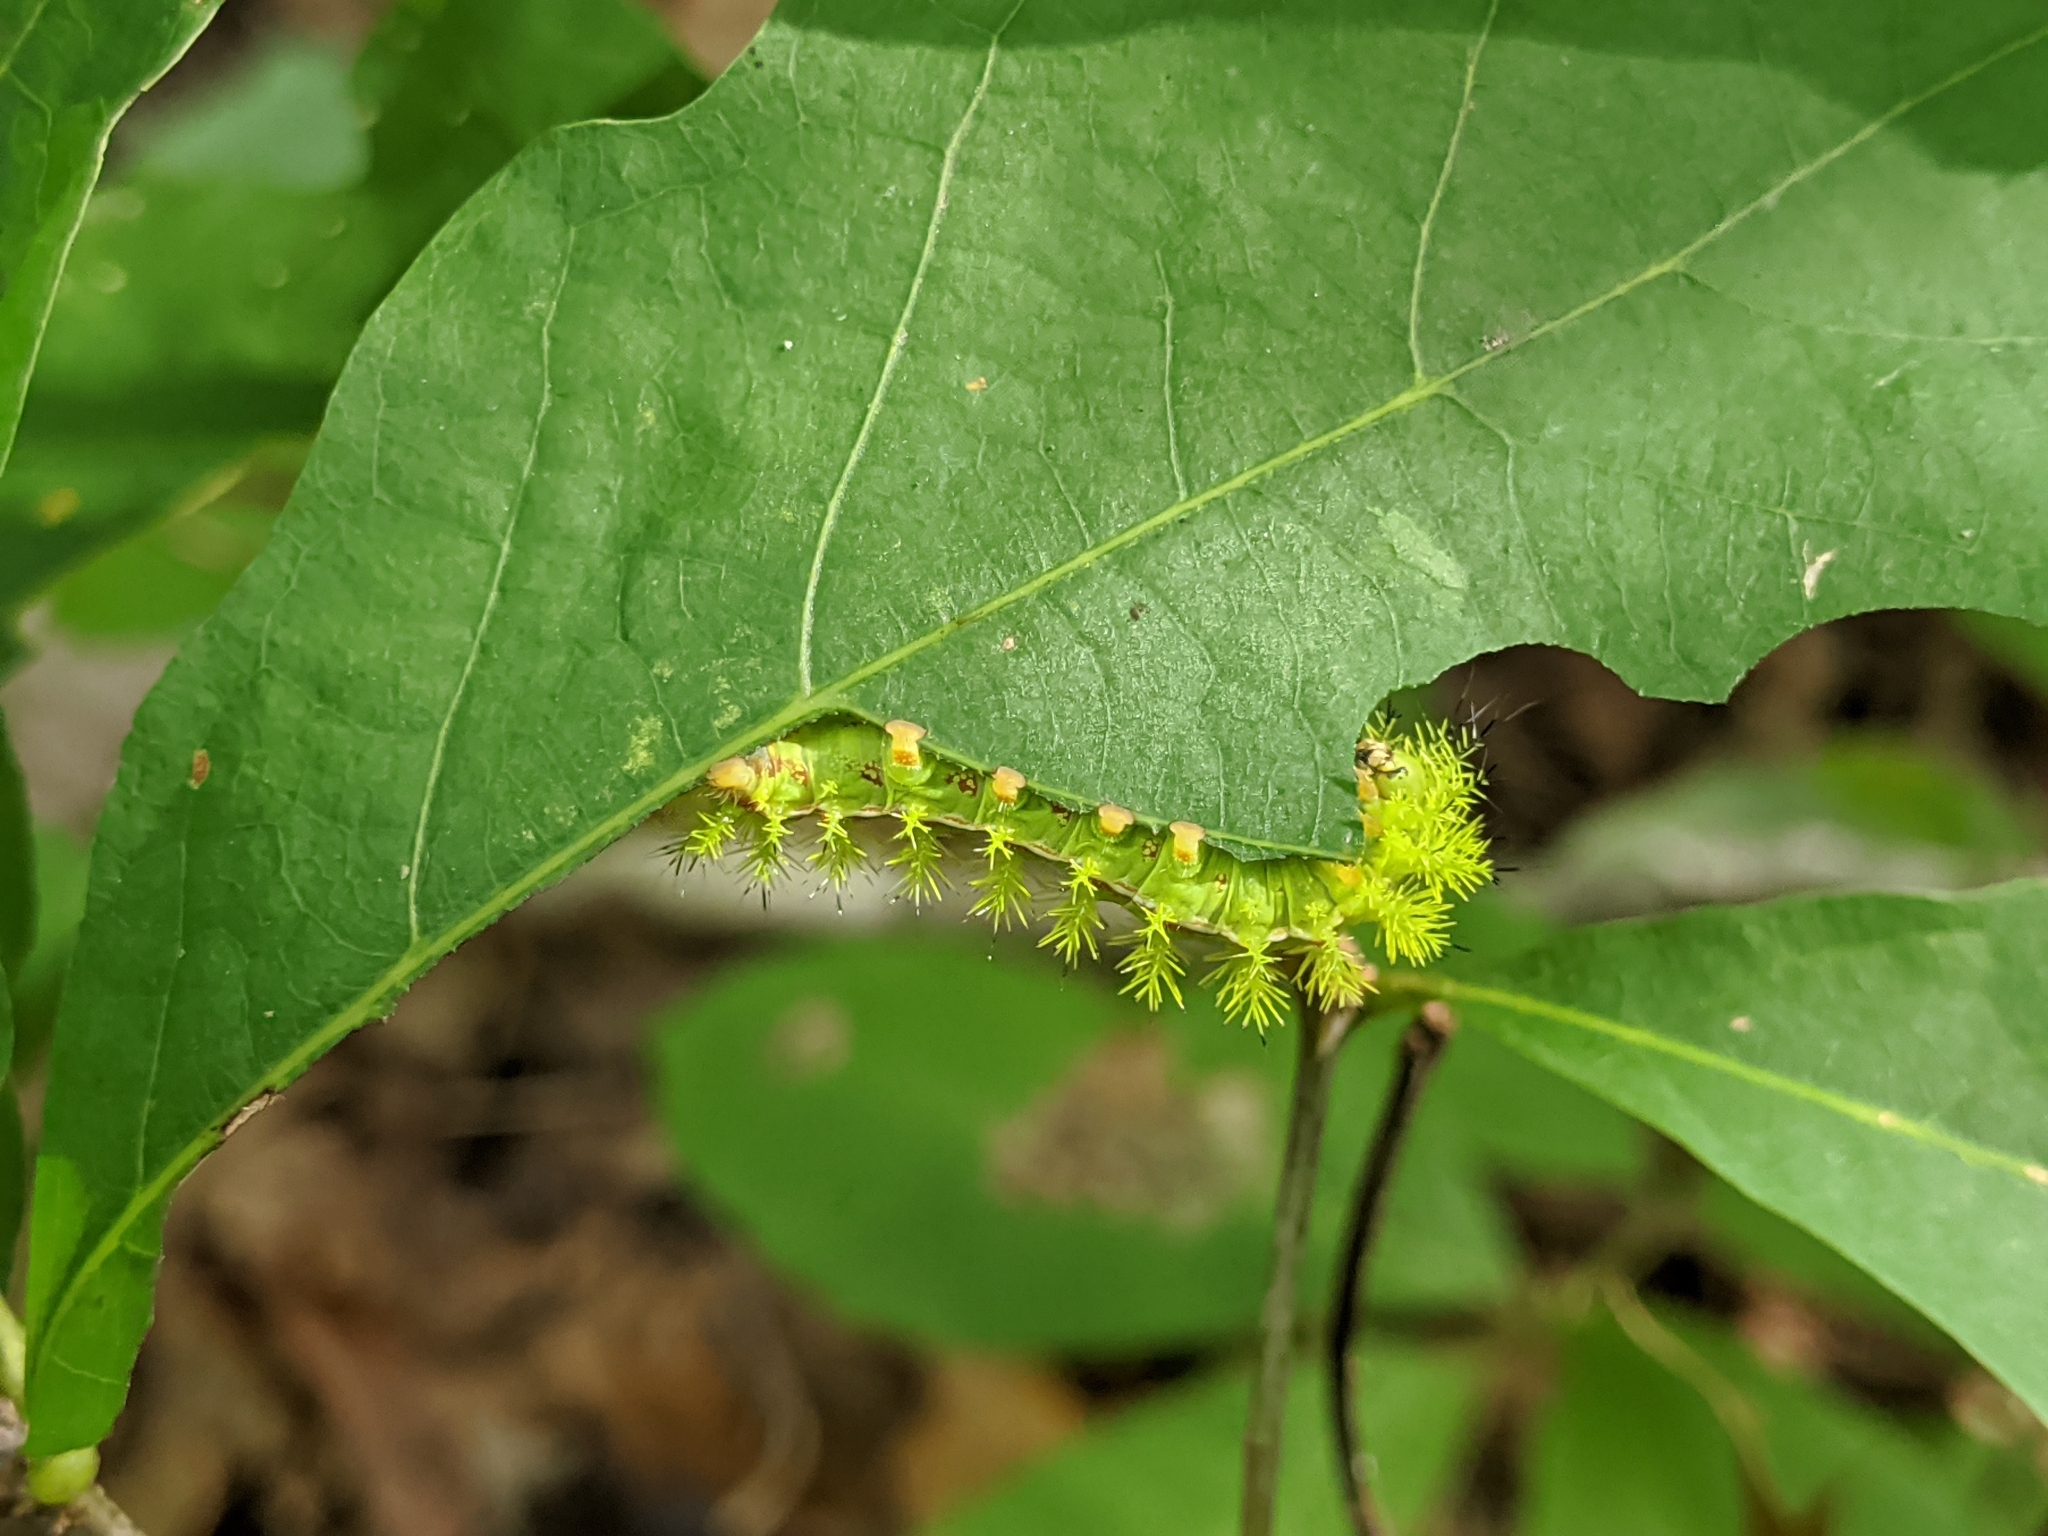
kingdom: Animalia
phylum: Arthropoda
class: Insecta
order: Lepidoptera
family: Saturniidae
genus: Automeris
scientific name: Automeris io
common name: Io moth
